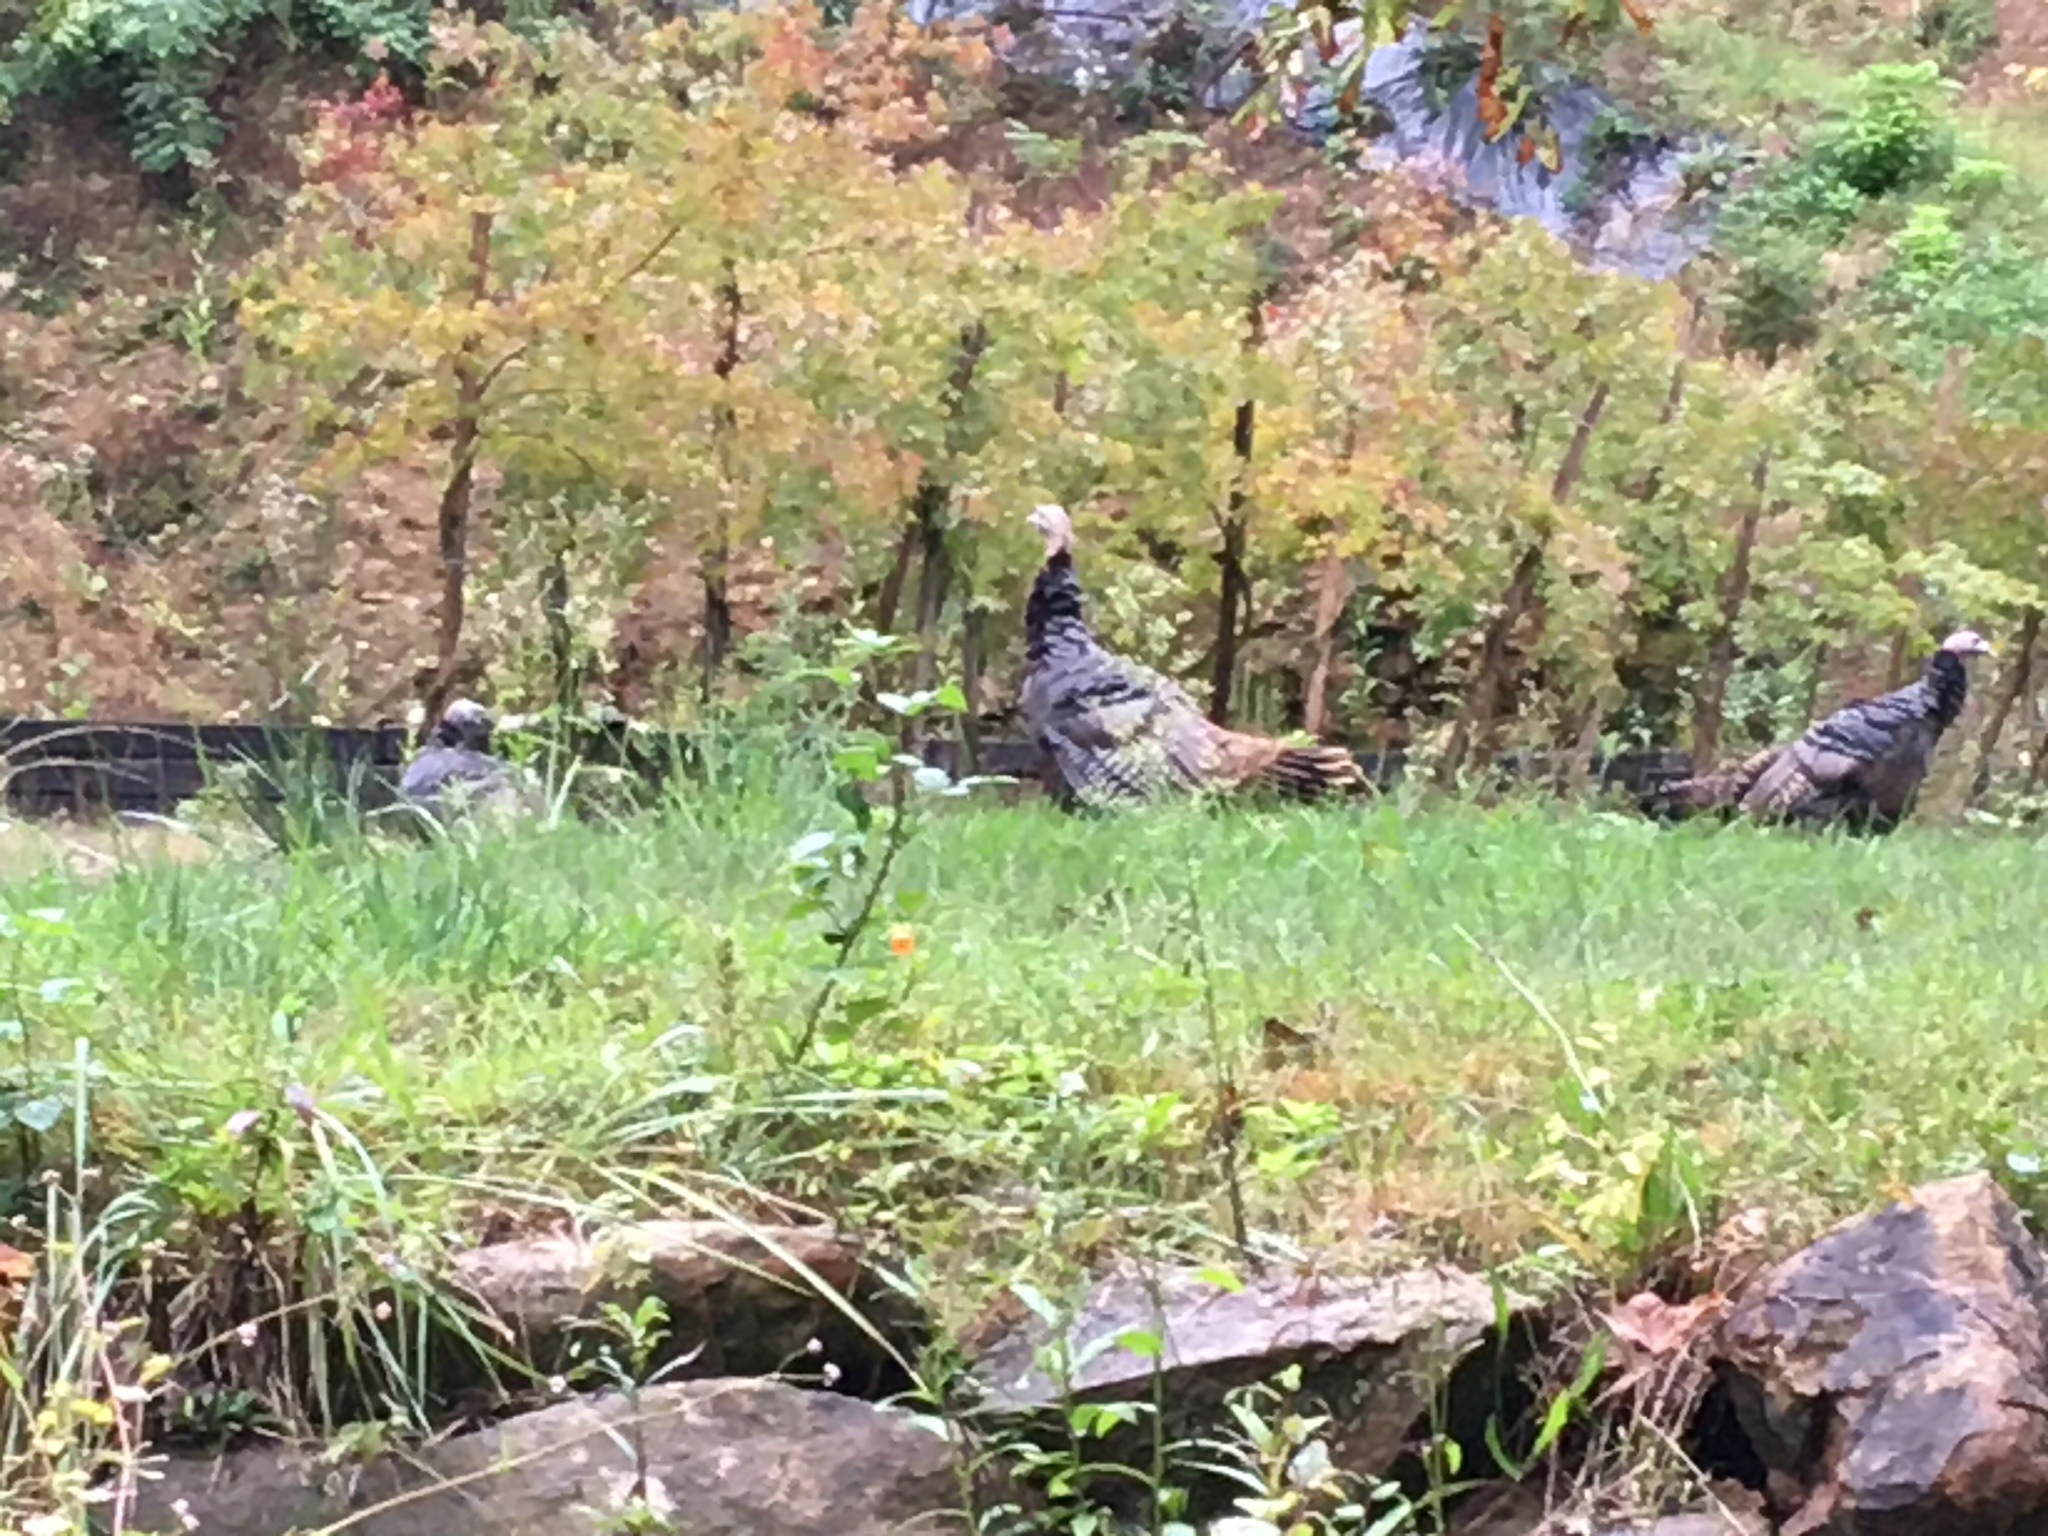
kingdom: Animalia
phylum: Chordata
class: Aves
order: Galliformes
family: Phasianidae
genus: Meleagris
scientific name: Meleagris gallopavo
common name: Wild turkey
